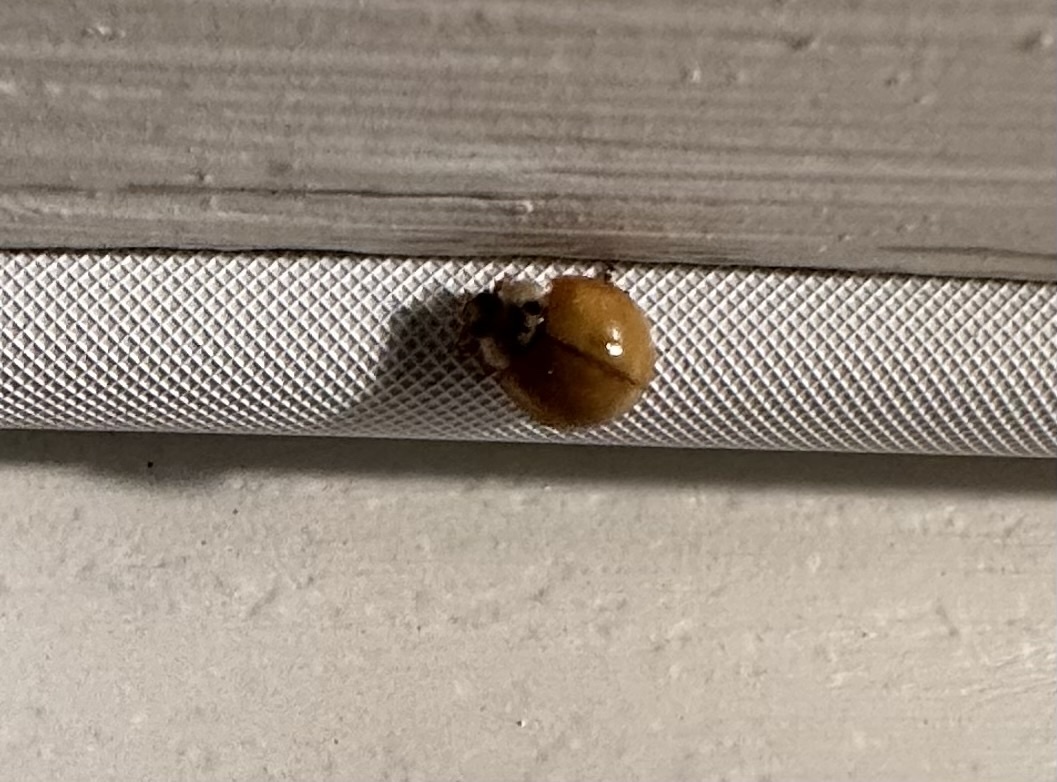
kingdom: Animalia
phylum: Arthropoda
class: Insecta
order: Coleoptera
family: Coccinellidae
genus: Harmonia
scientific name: Harmonia axyridis
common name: Harlequin ladybird
